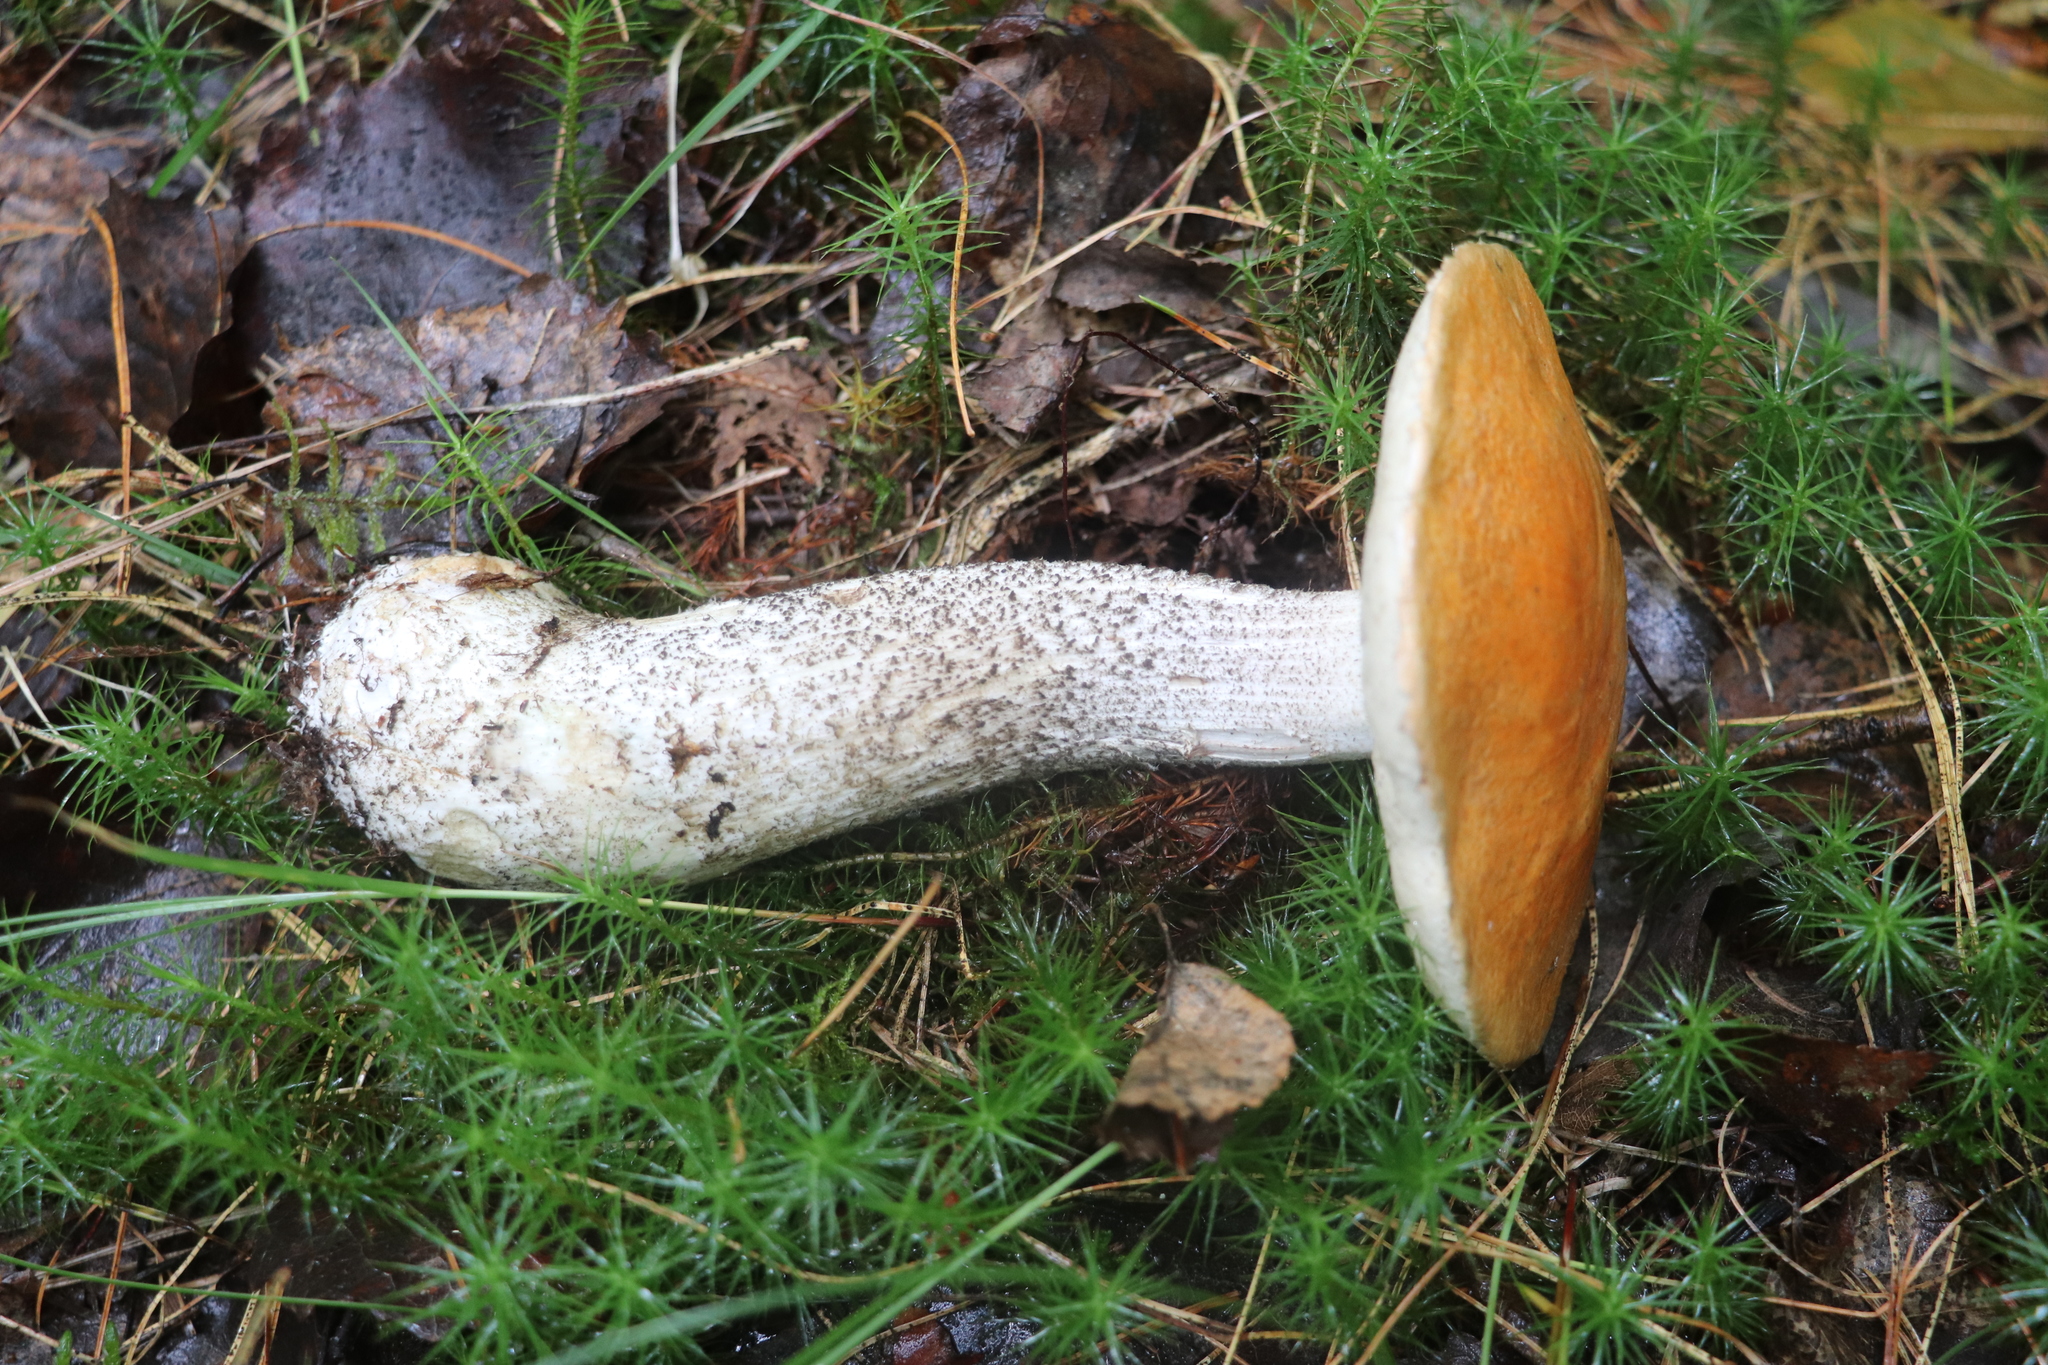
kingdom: Fungi
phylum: Basidiomycota
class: Agaricomycetes
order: Boletales
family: Boletaceae
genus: Leccinum
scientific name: Leccinum piceinum
